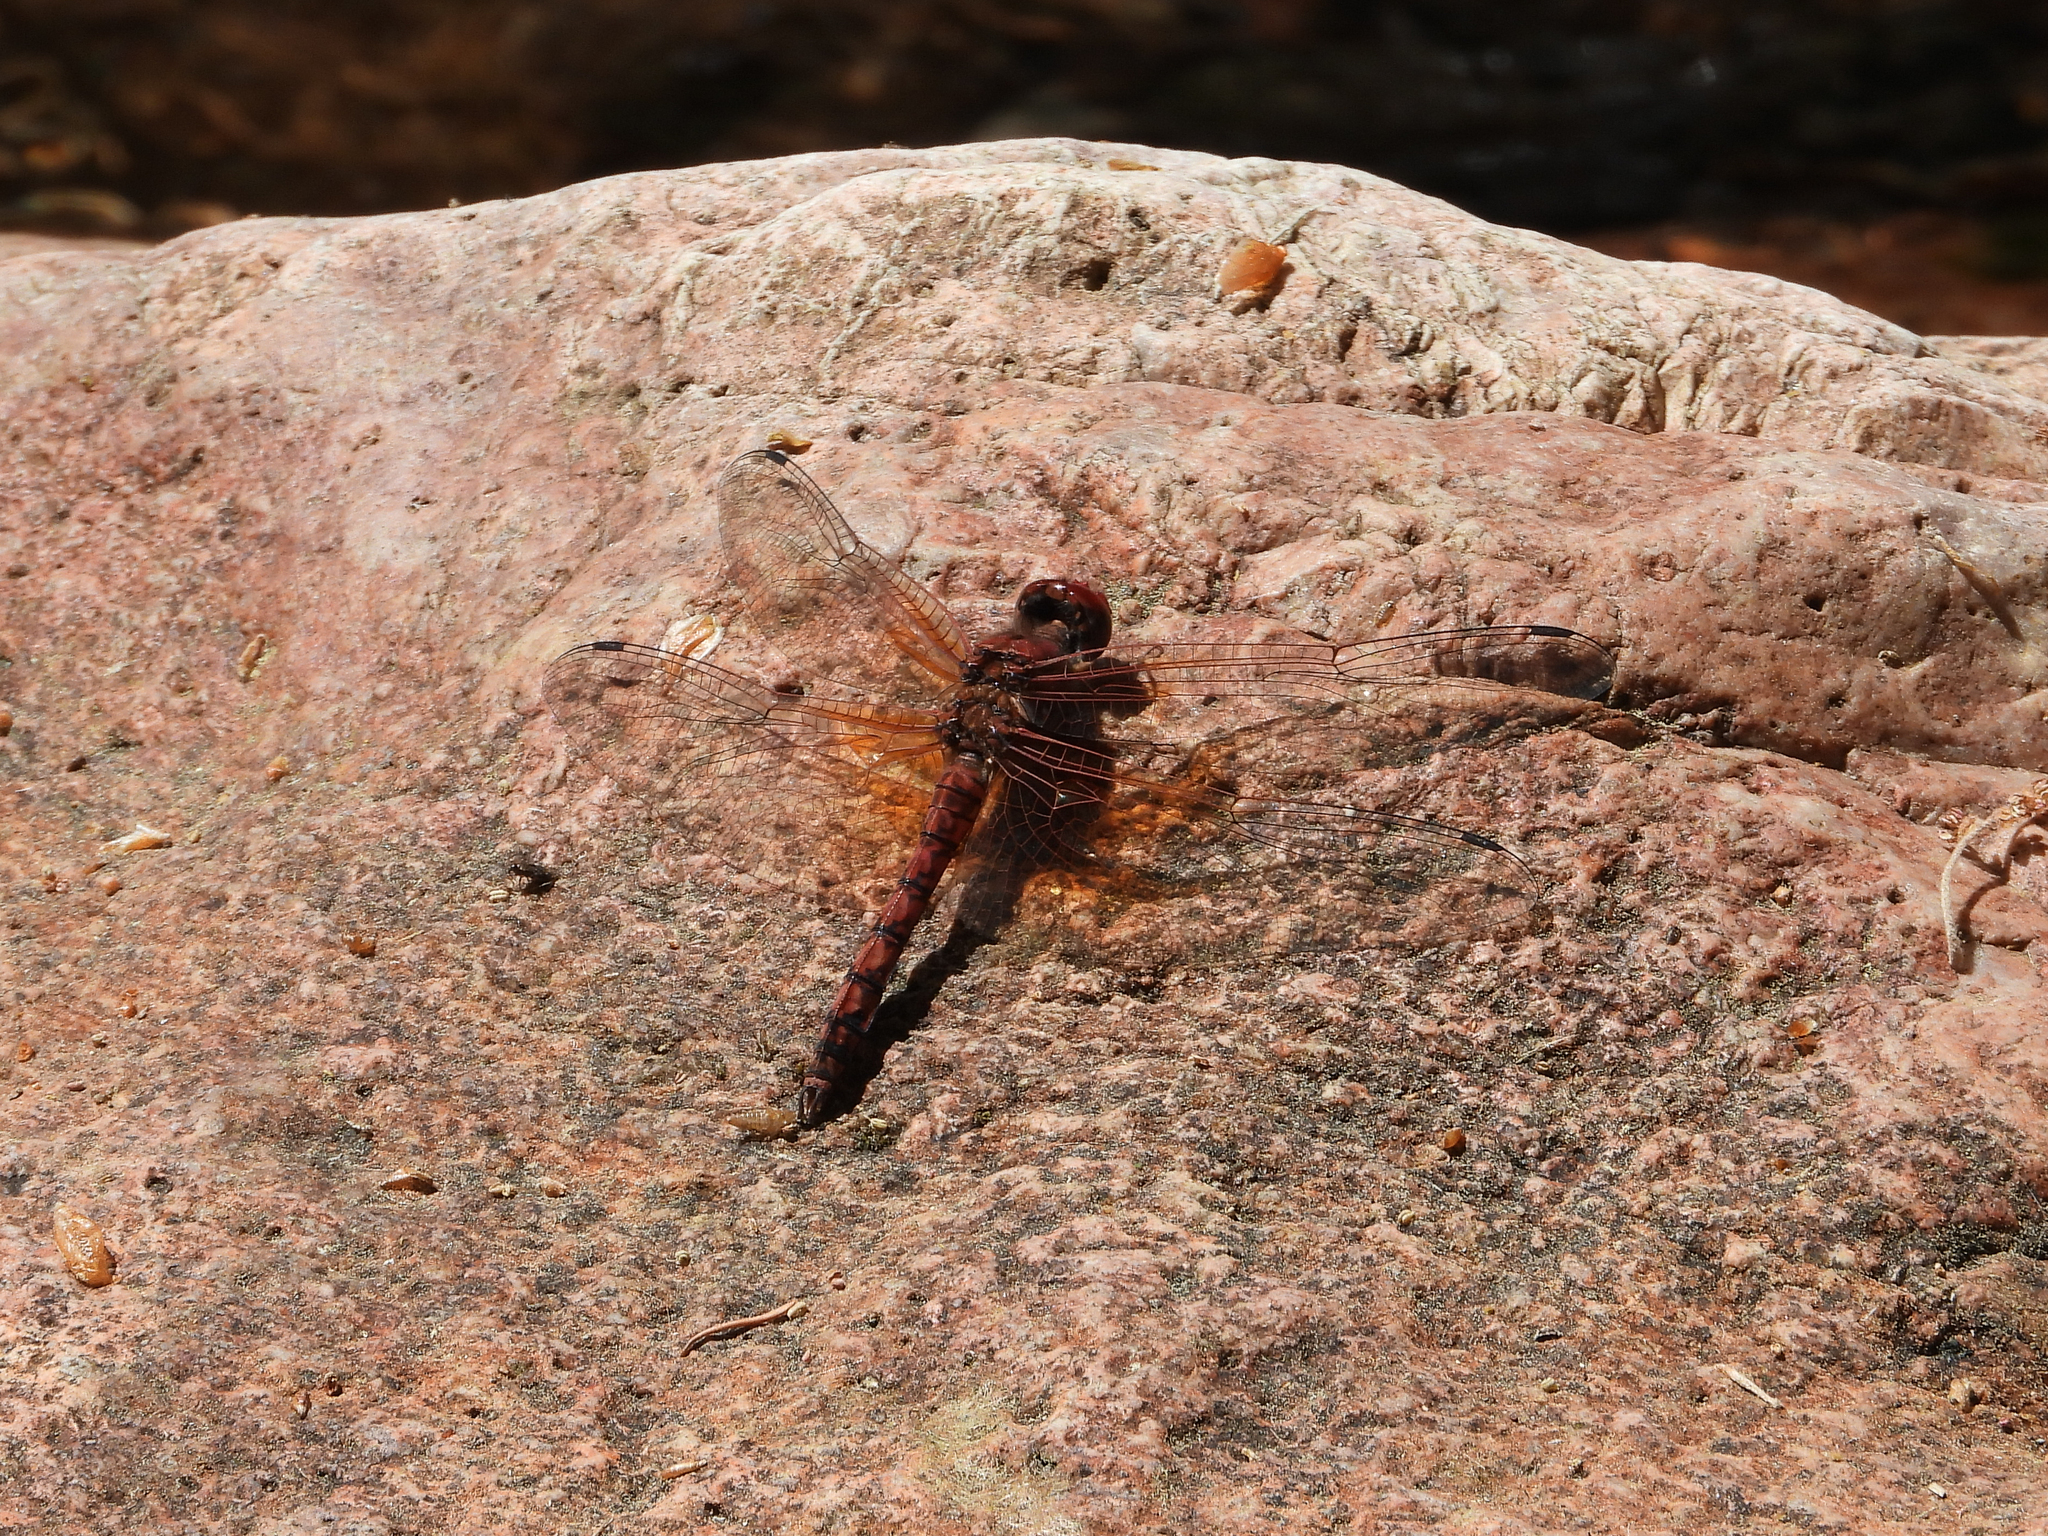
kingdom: Animalia
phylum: Arthropoda
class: Insecta
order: Odonata
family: Libellulidae
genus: Paltothemis
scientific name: Paltothemis lineatipes
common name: Red rock skimmer
